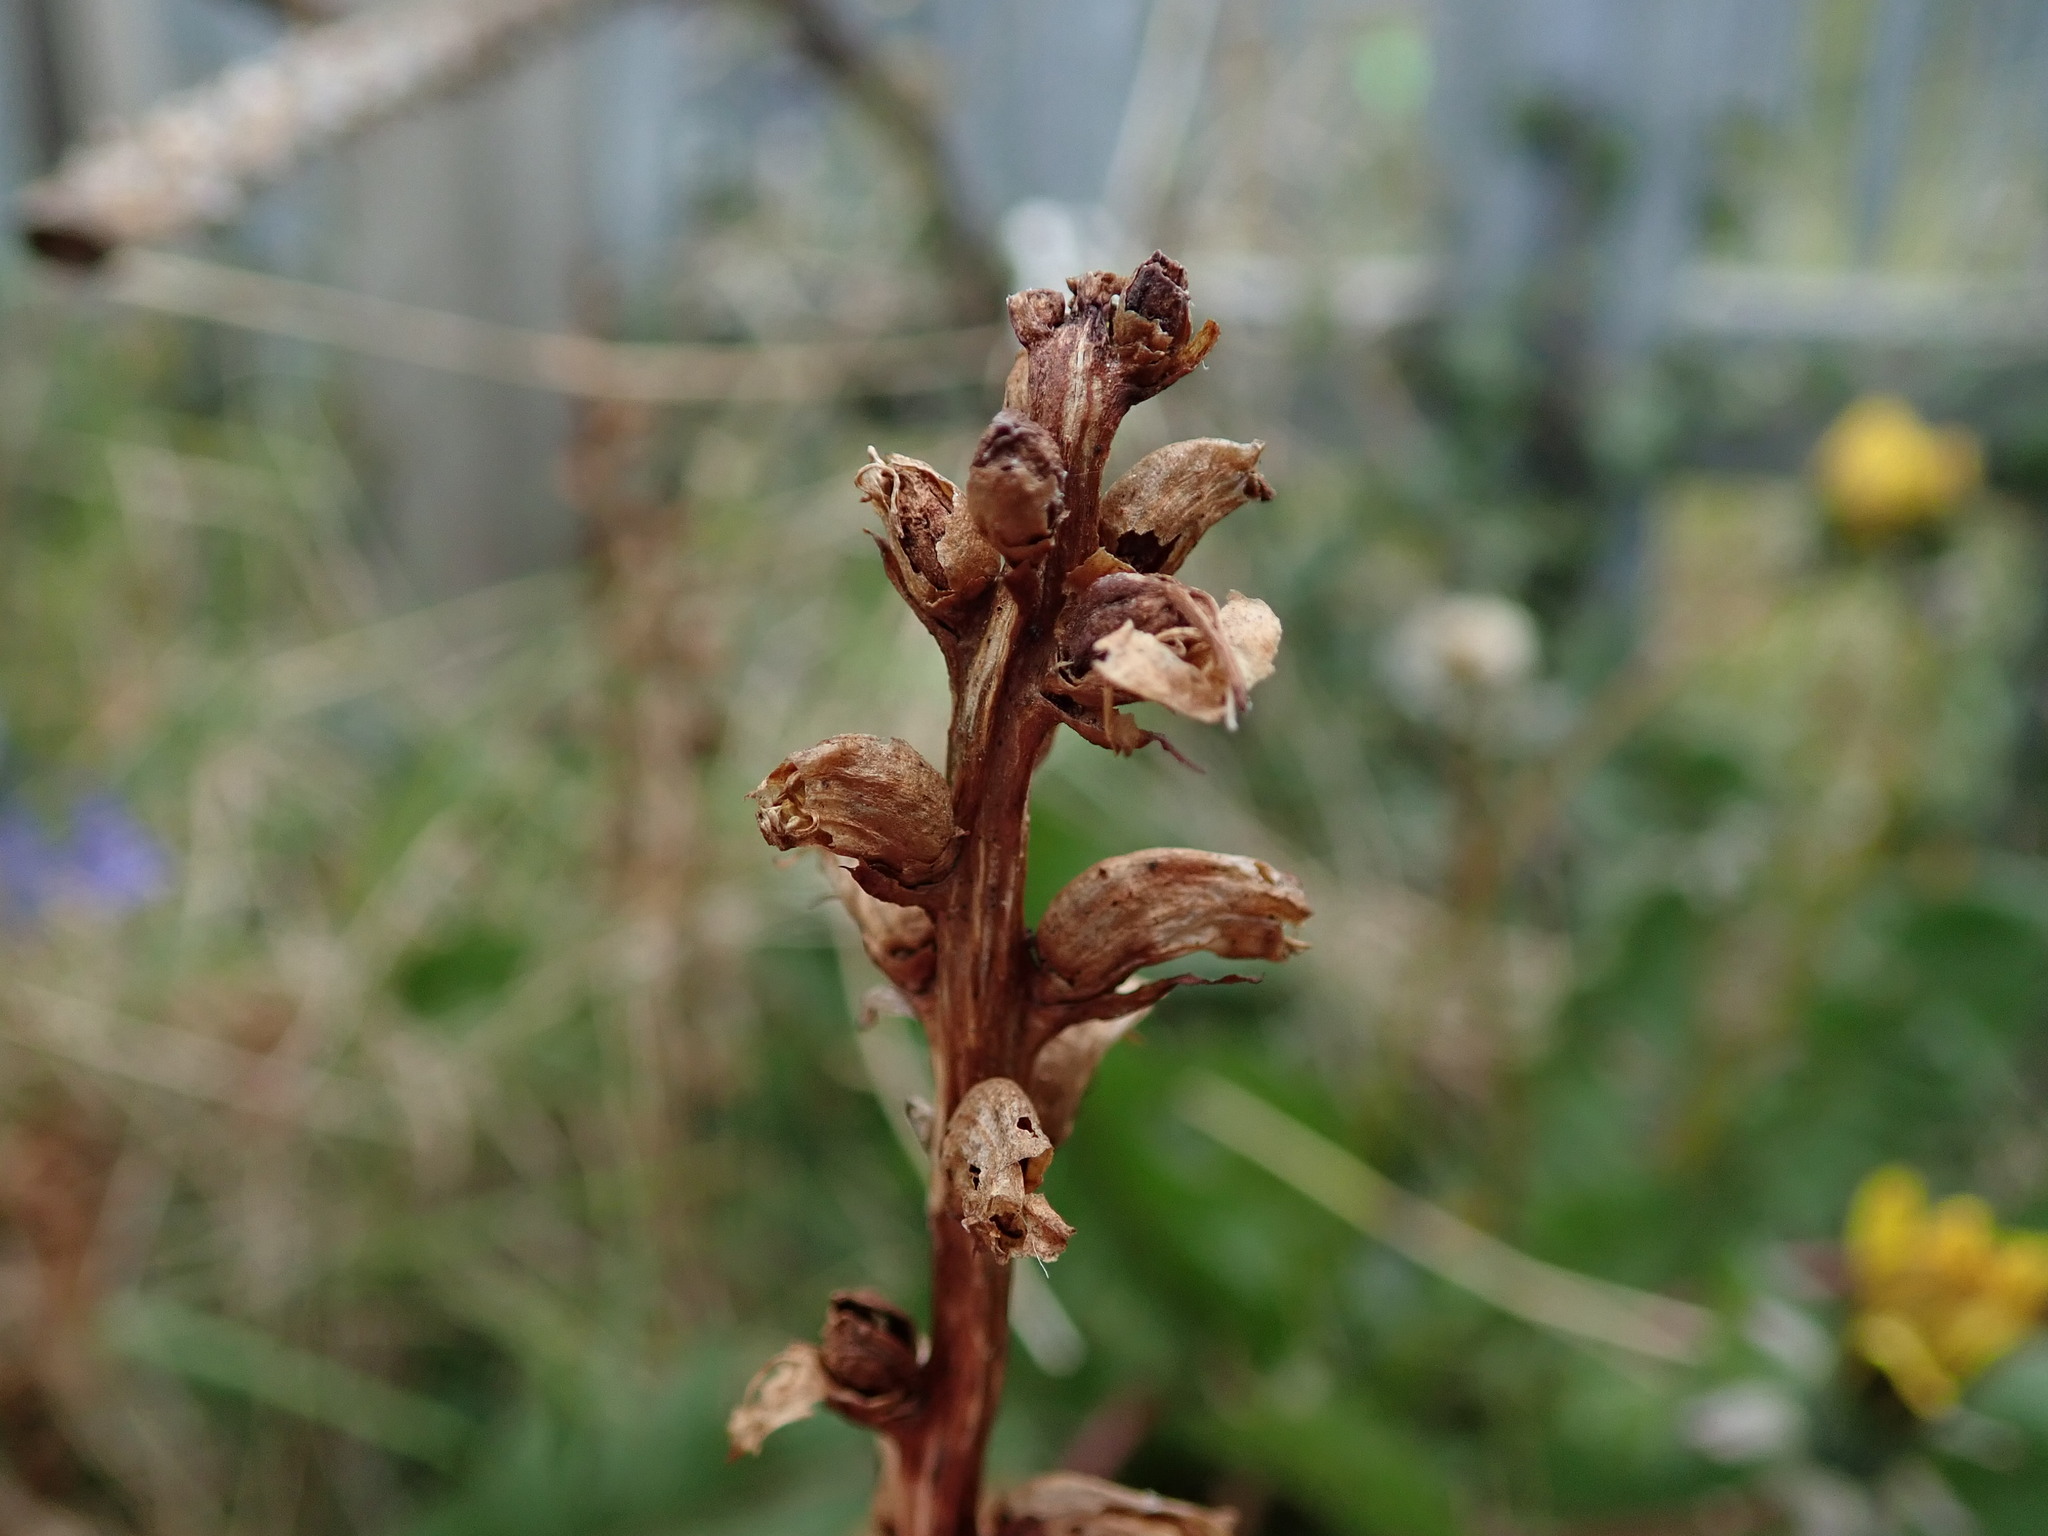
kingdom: Plantae
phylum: Tracheophyta
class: Magnoliopsida
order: Lamiales
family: Orobanchaceae
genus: Orobanche
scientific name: Orobanche hederae
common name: Ivy broomrape
